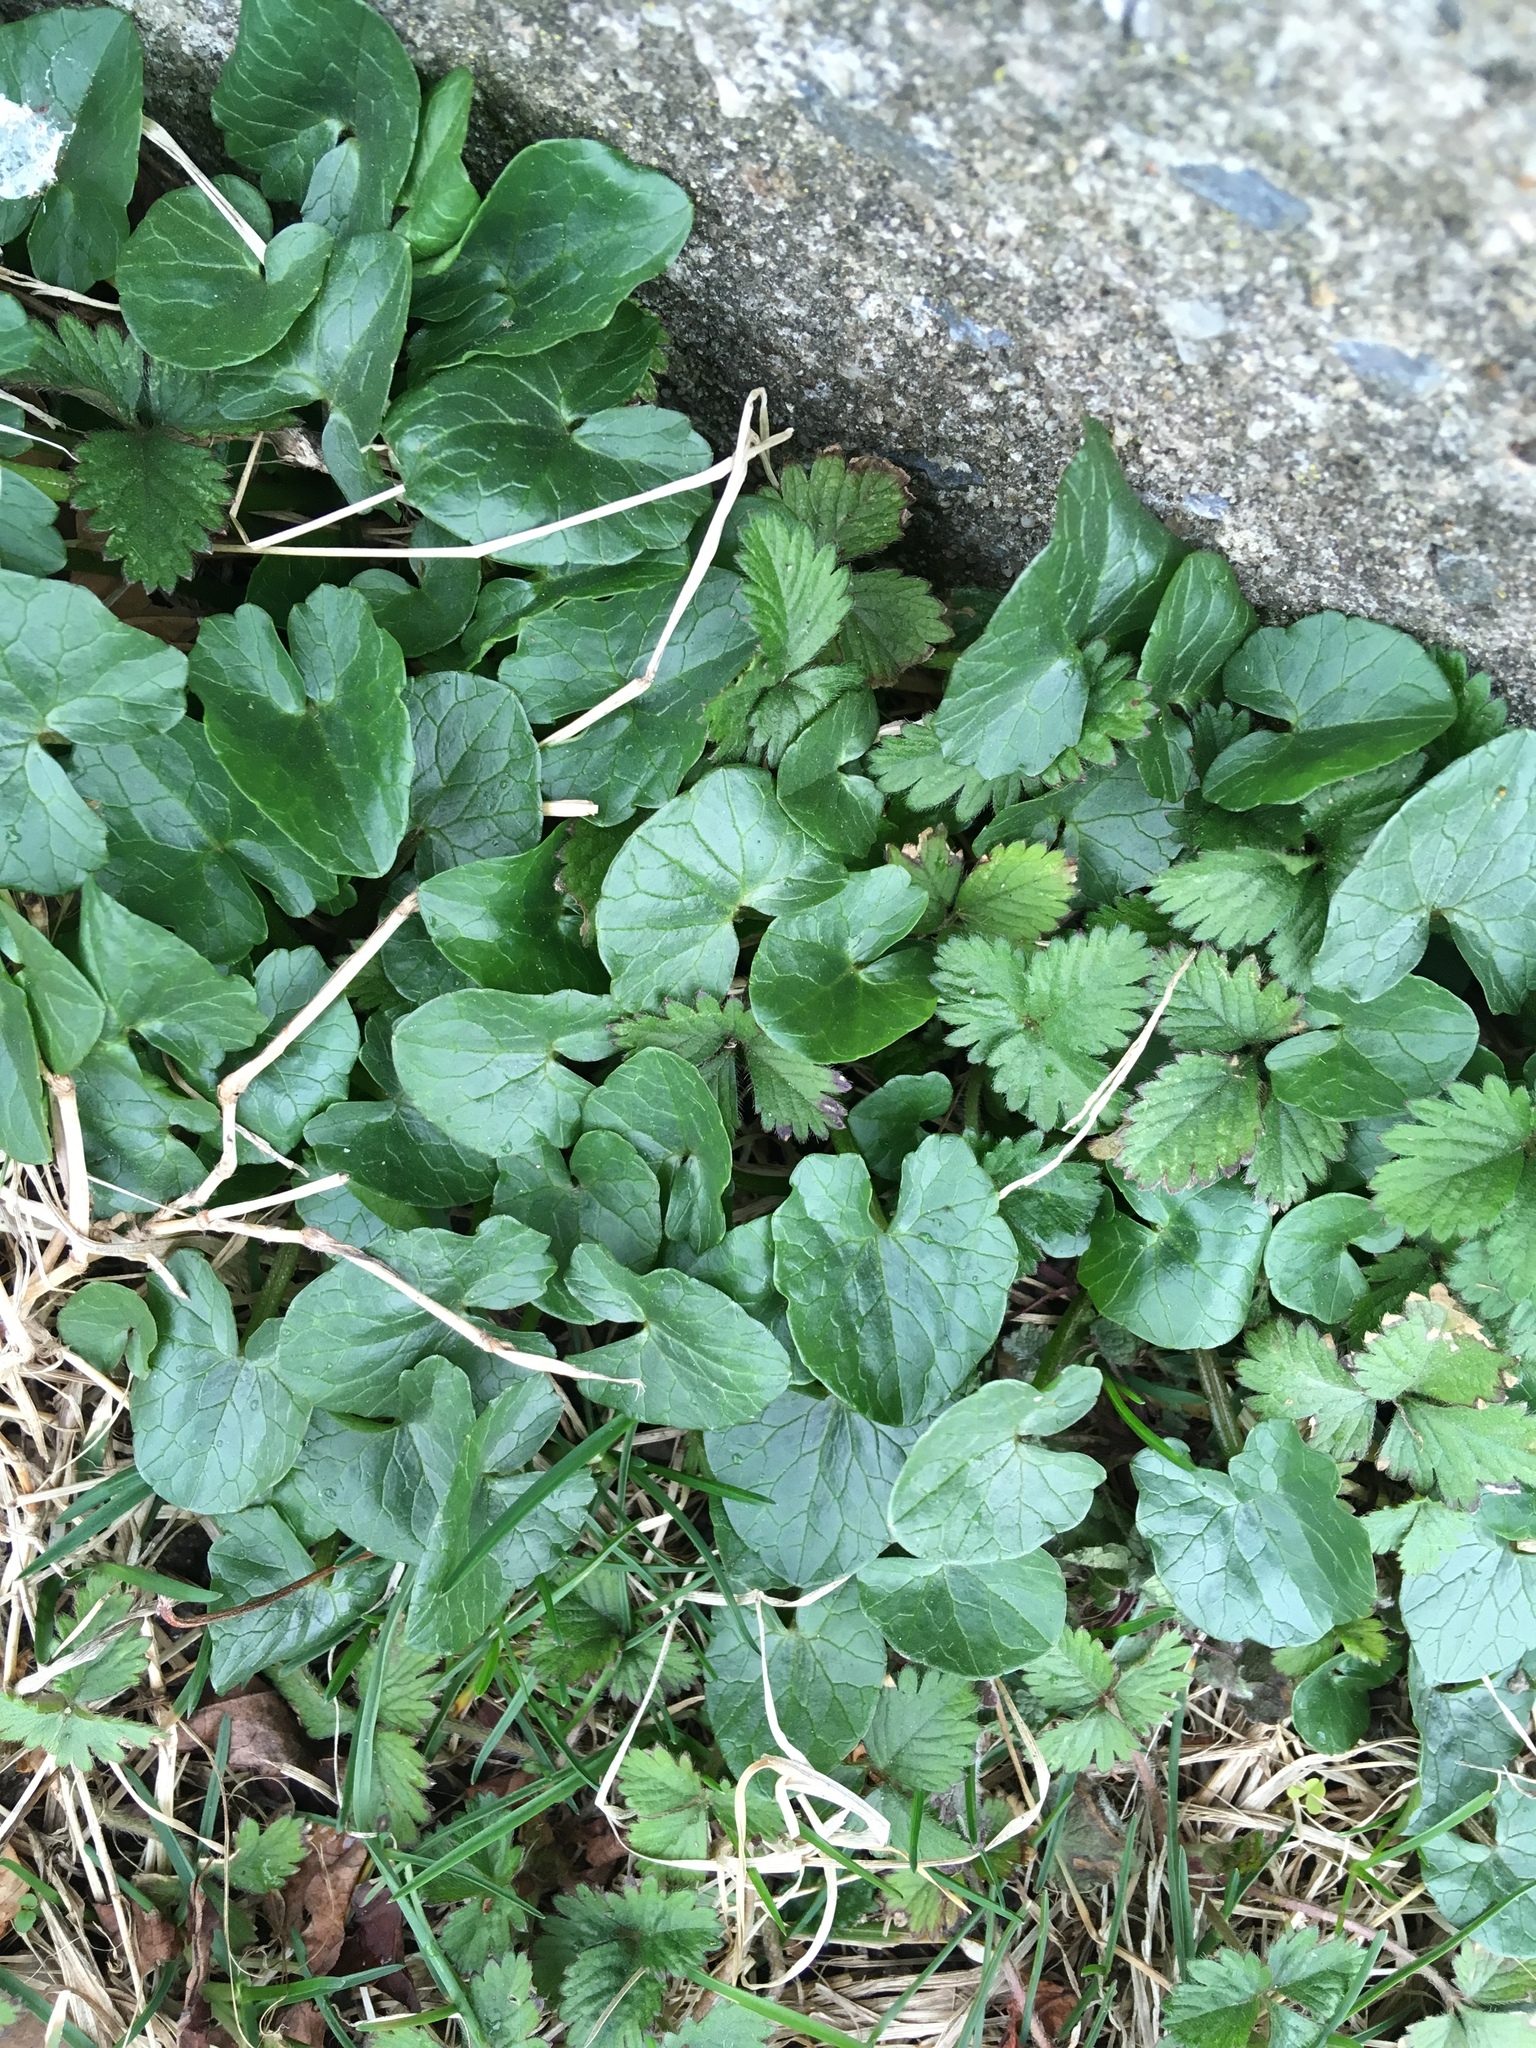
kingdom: Plantae
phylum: Tracheophyta
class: Magnoliopsida
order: Ranunculales
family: Ranunculaceae
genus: Ficaria
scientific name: Ficaria verna
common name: Lesser celandine
